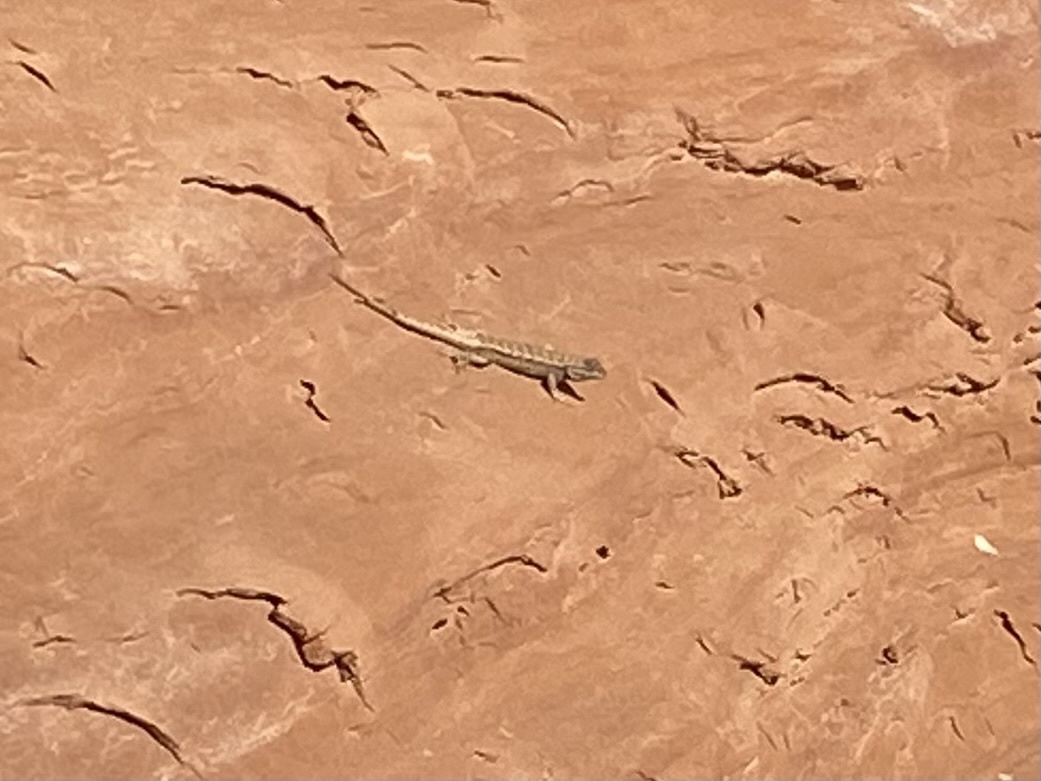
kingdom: Animalia
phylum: Chordata
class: Squamata
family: Phrynosomatidae
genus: Sceloporus
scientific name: Sceloporus tristichus
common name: Plateau fence lizard
